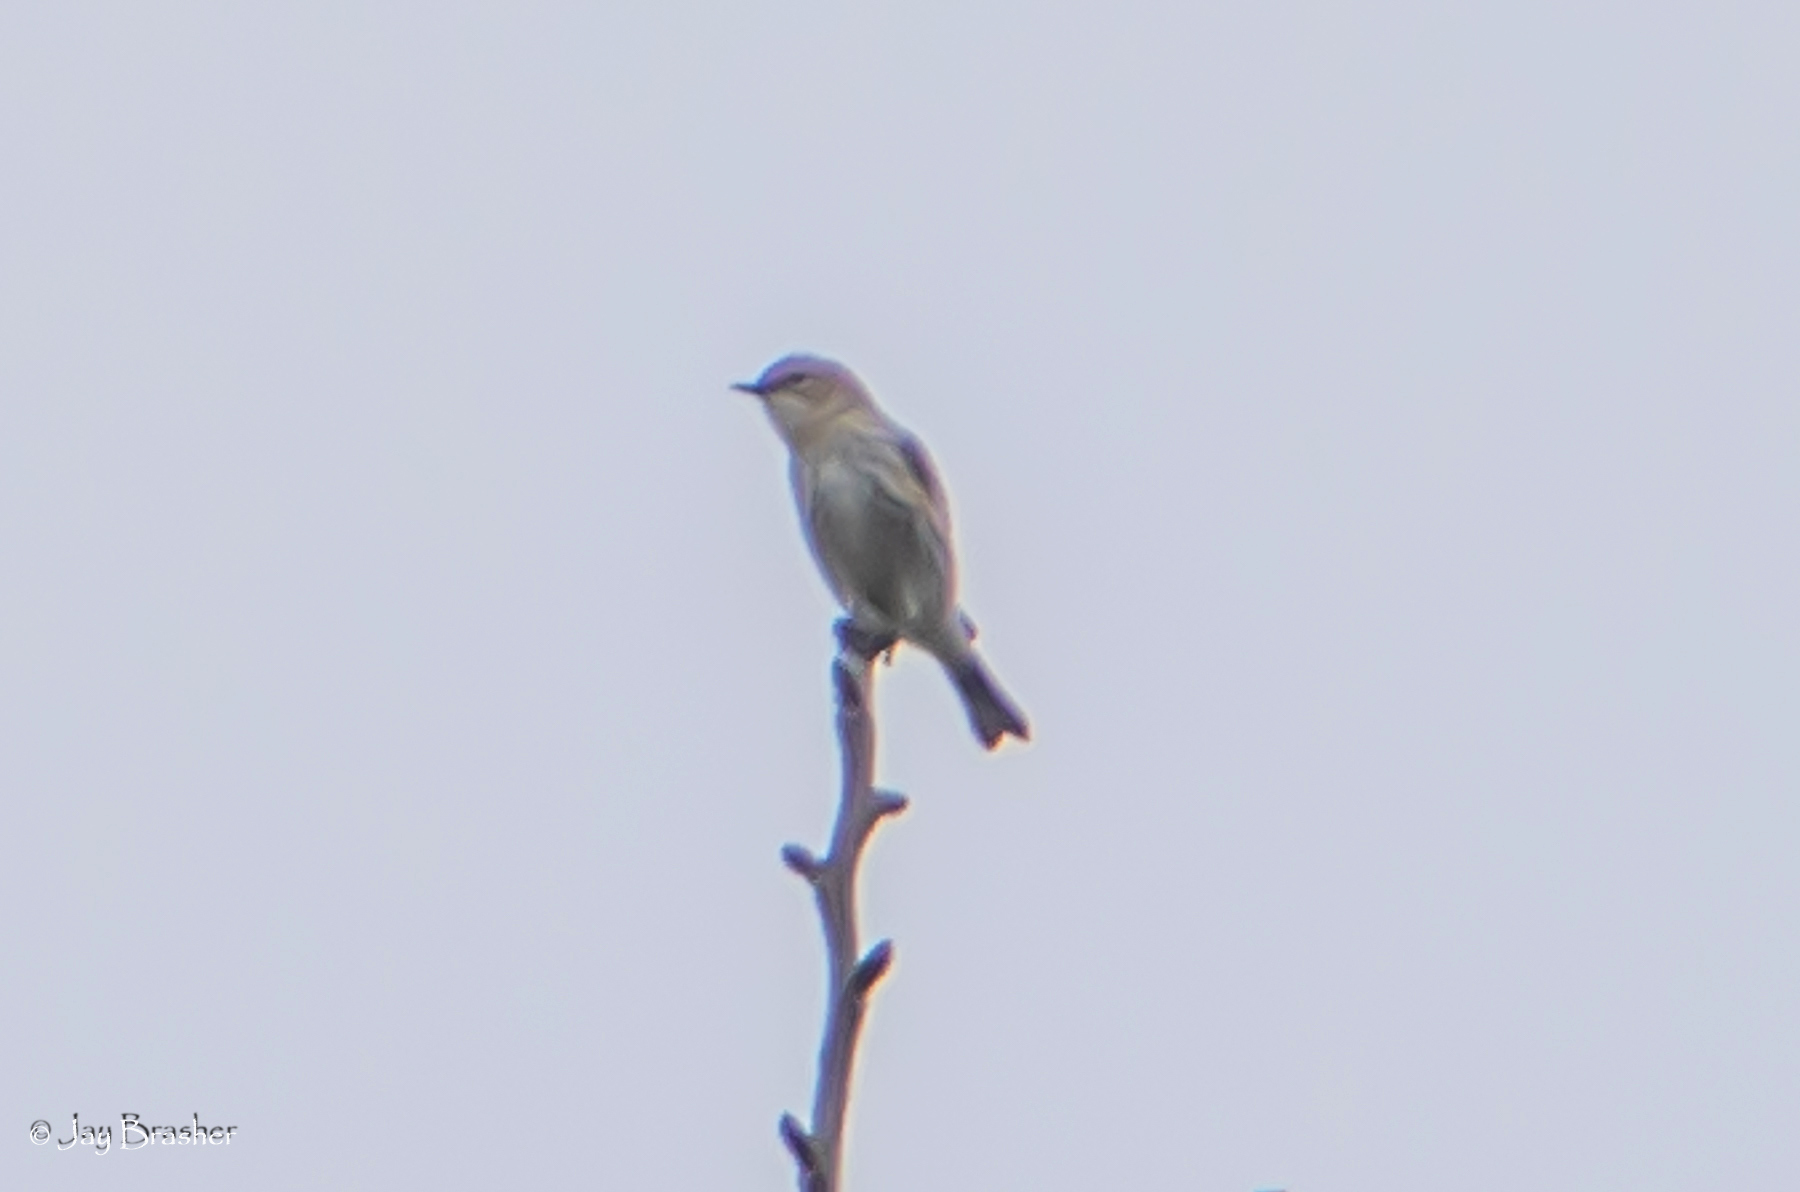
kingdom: Animalia
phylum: Chordata
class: Aves
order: Passeriformes
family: Parulidae
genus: Setophaga
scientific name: Setophaga coronata
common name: Myrtle warbler
